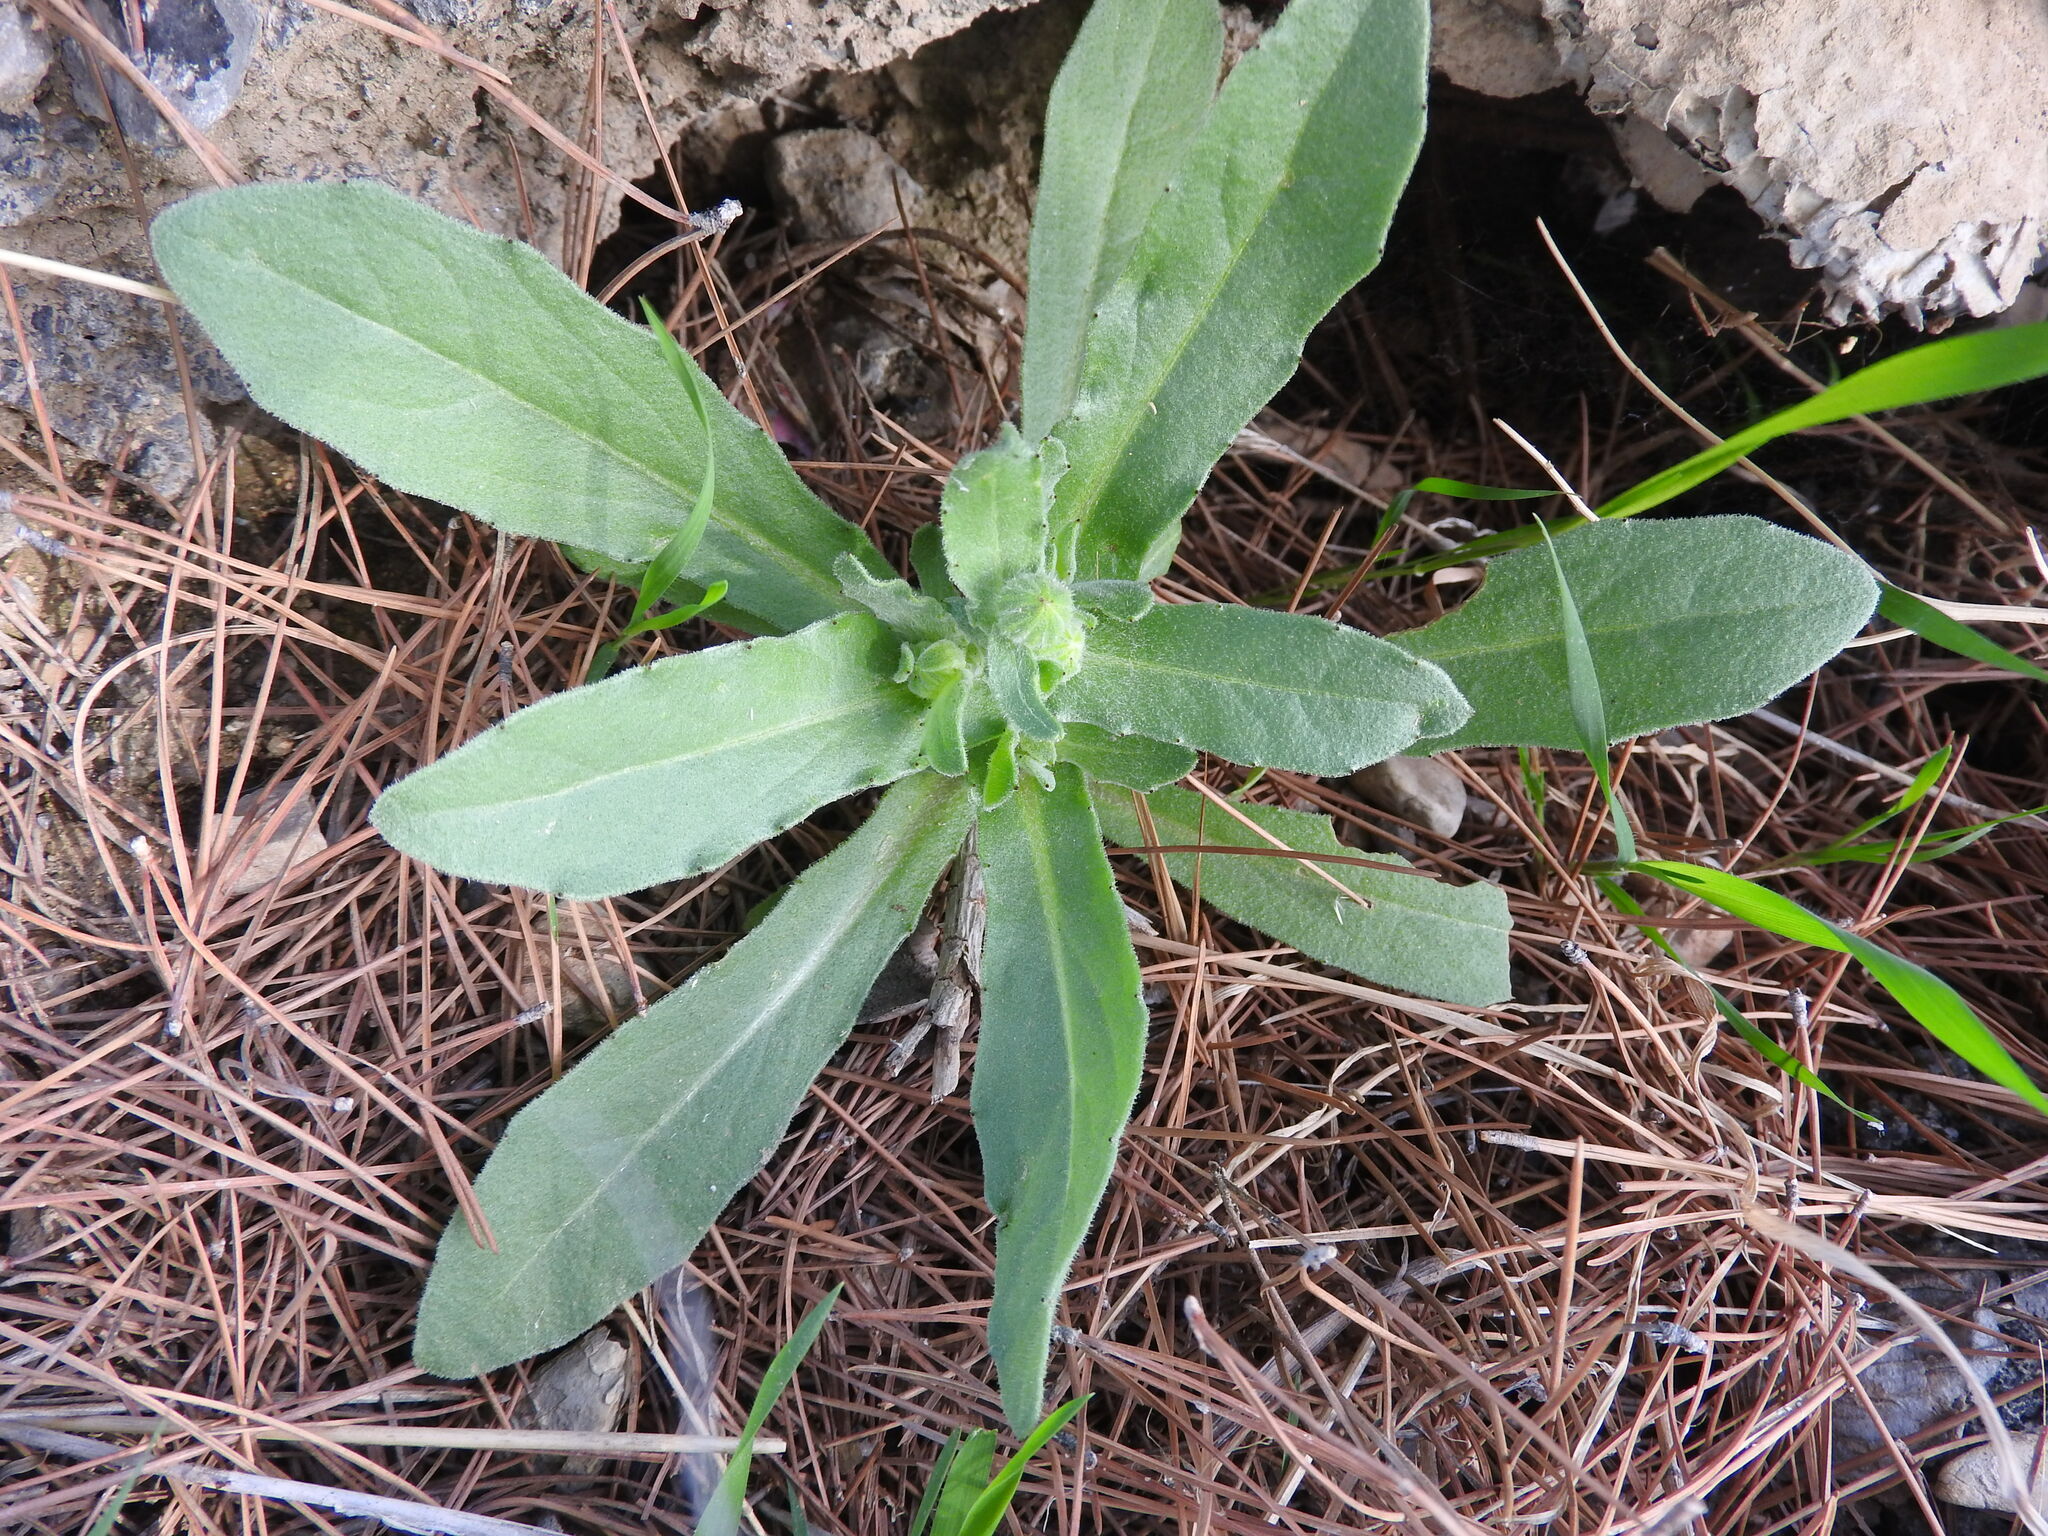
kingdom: Plantae
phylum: Tracheophyta
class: Magnoliopsida
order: Asterales
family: Asteraceae
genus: Calendula
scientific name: Calendula arvensis
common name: Field marigold
